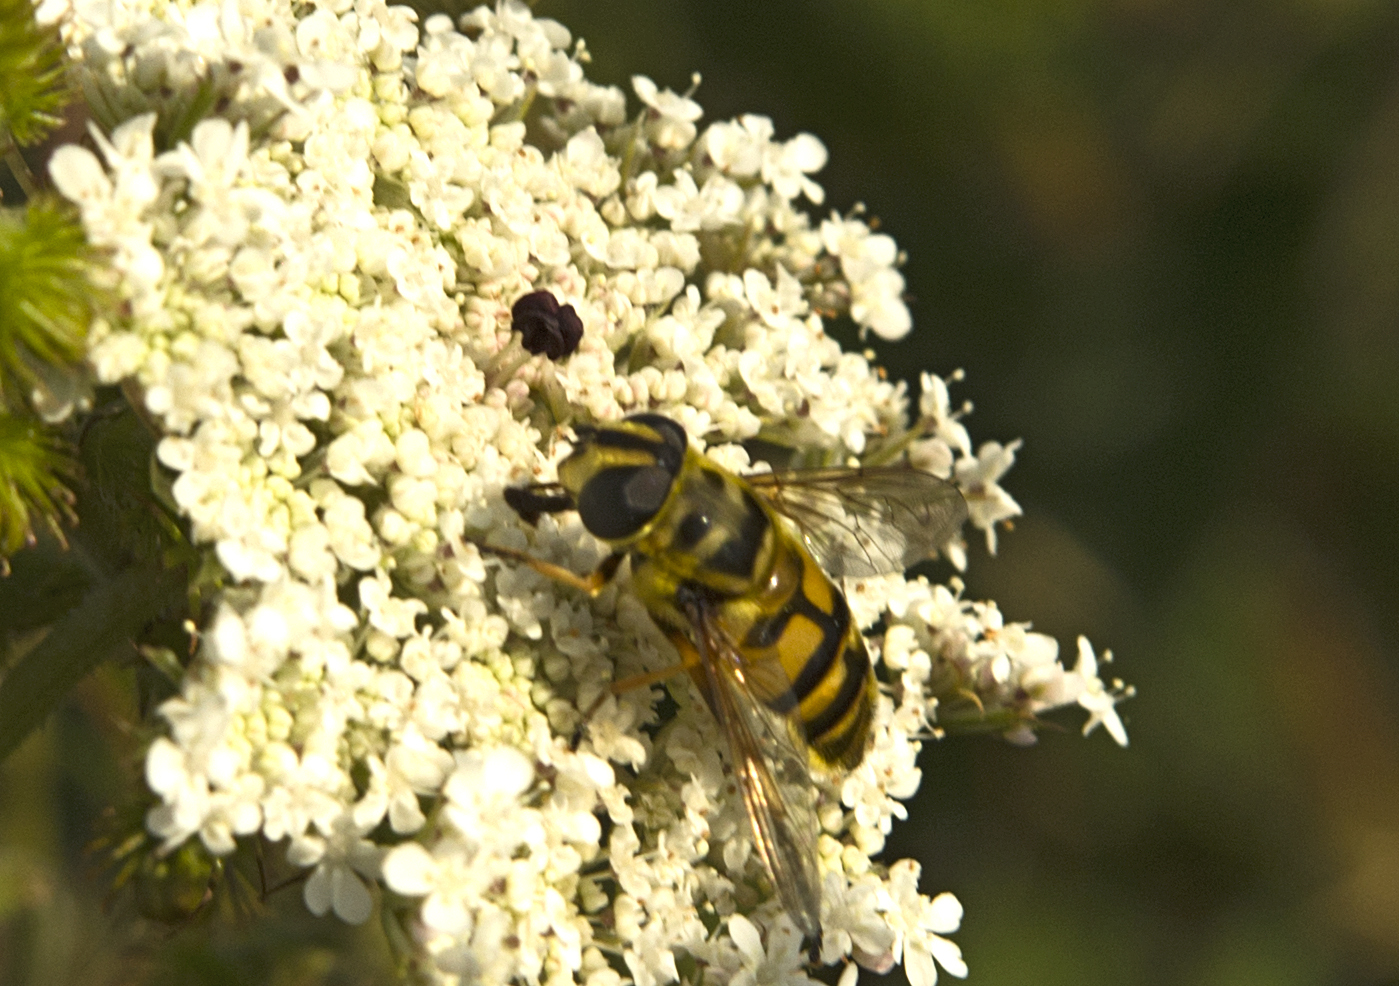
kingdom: Animalia
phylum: Arthropoda
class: Insecta
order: Diptera
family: Syrphidae
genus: Myathropa
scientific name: Myathropa florea
